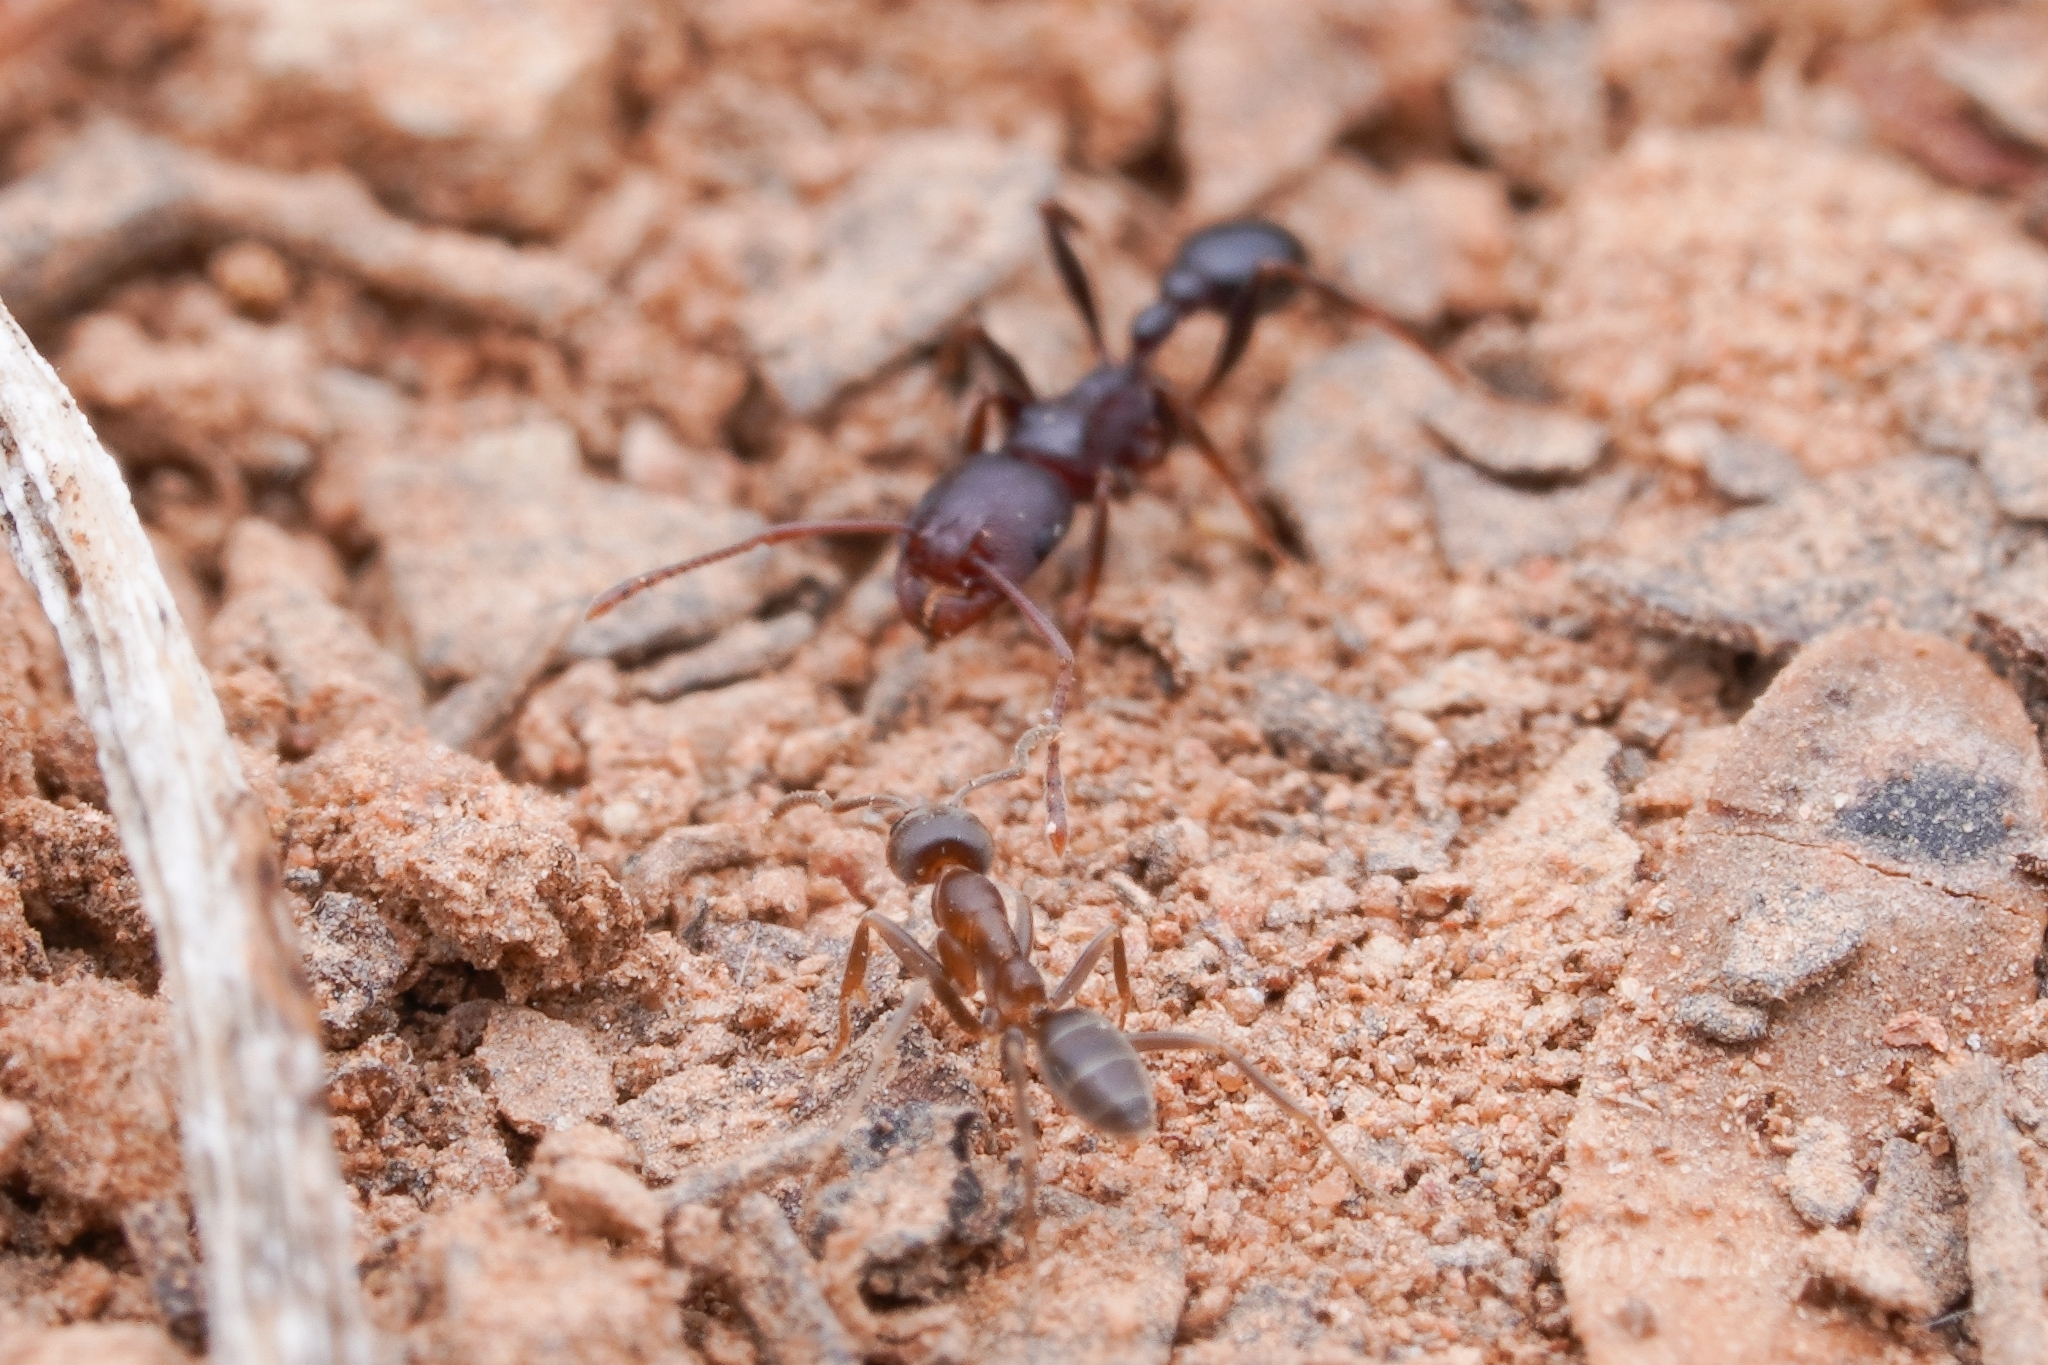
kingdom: Animalia
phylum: Arthropoda
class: Insecta
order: Hymenoptera
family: Formicidae
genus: Linepithema
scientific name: Linepithema humile
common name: Argentine ant
